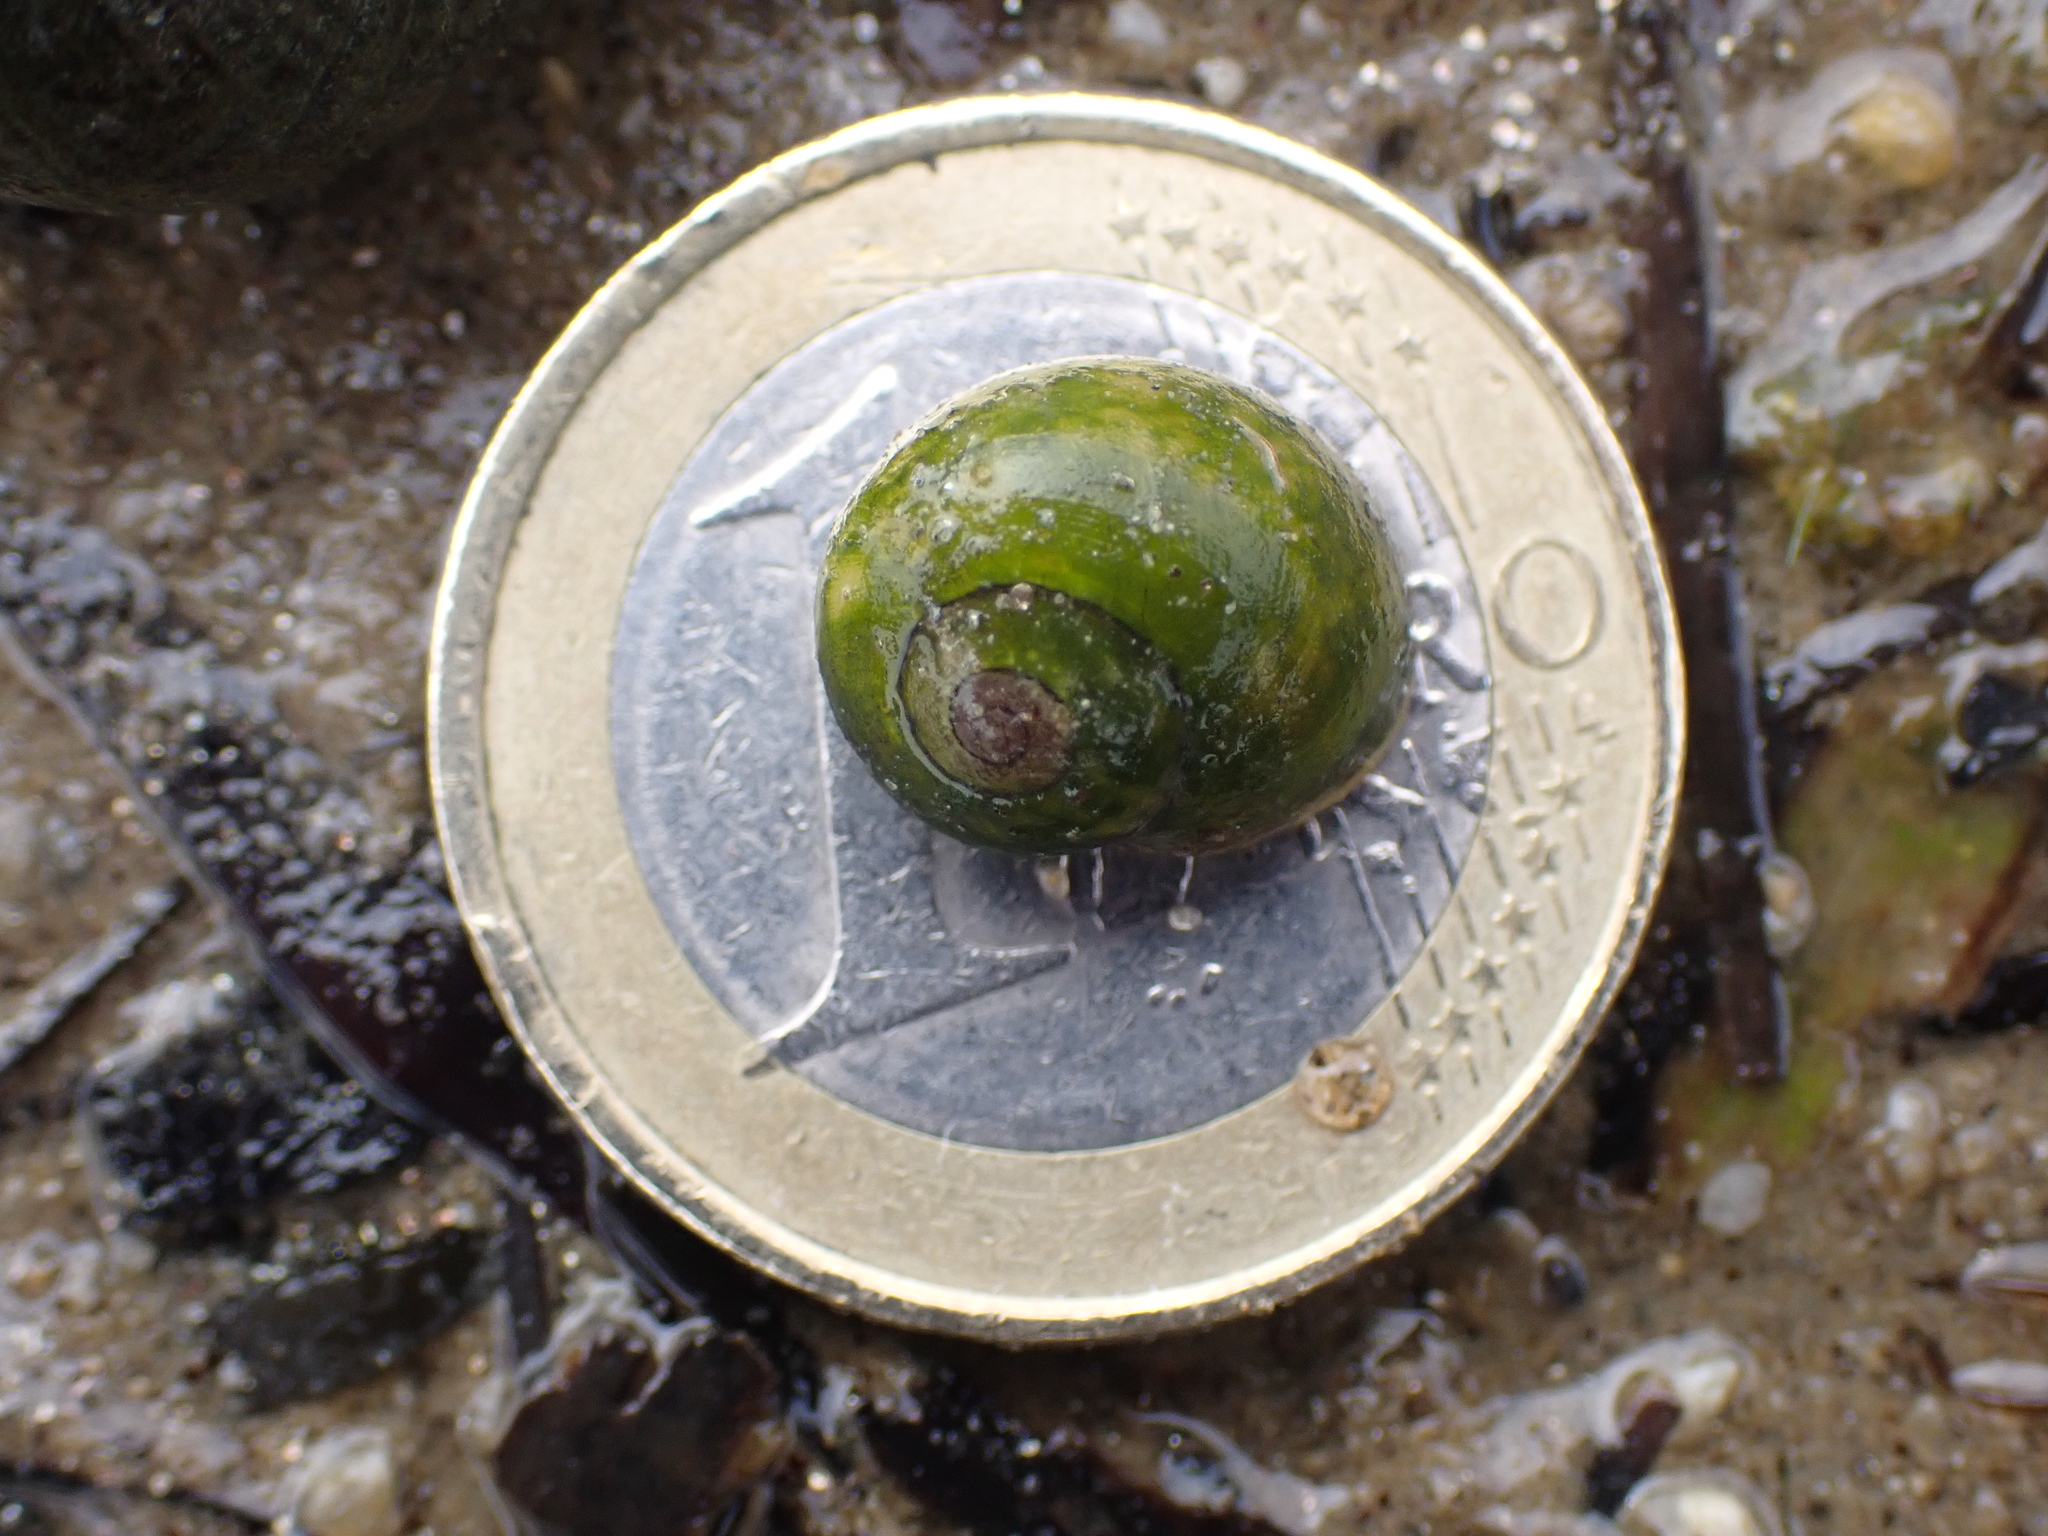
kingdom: Animalia
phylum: Mollusca
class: Gastropoda
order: Littorinimorpha
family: Littorinidae
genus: Littorina
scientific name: Littorina obtusata
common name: Flat periwinkle
